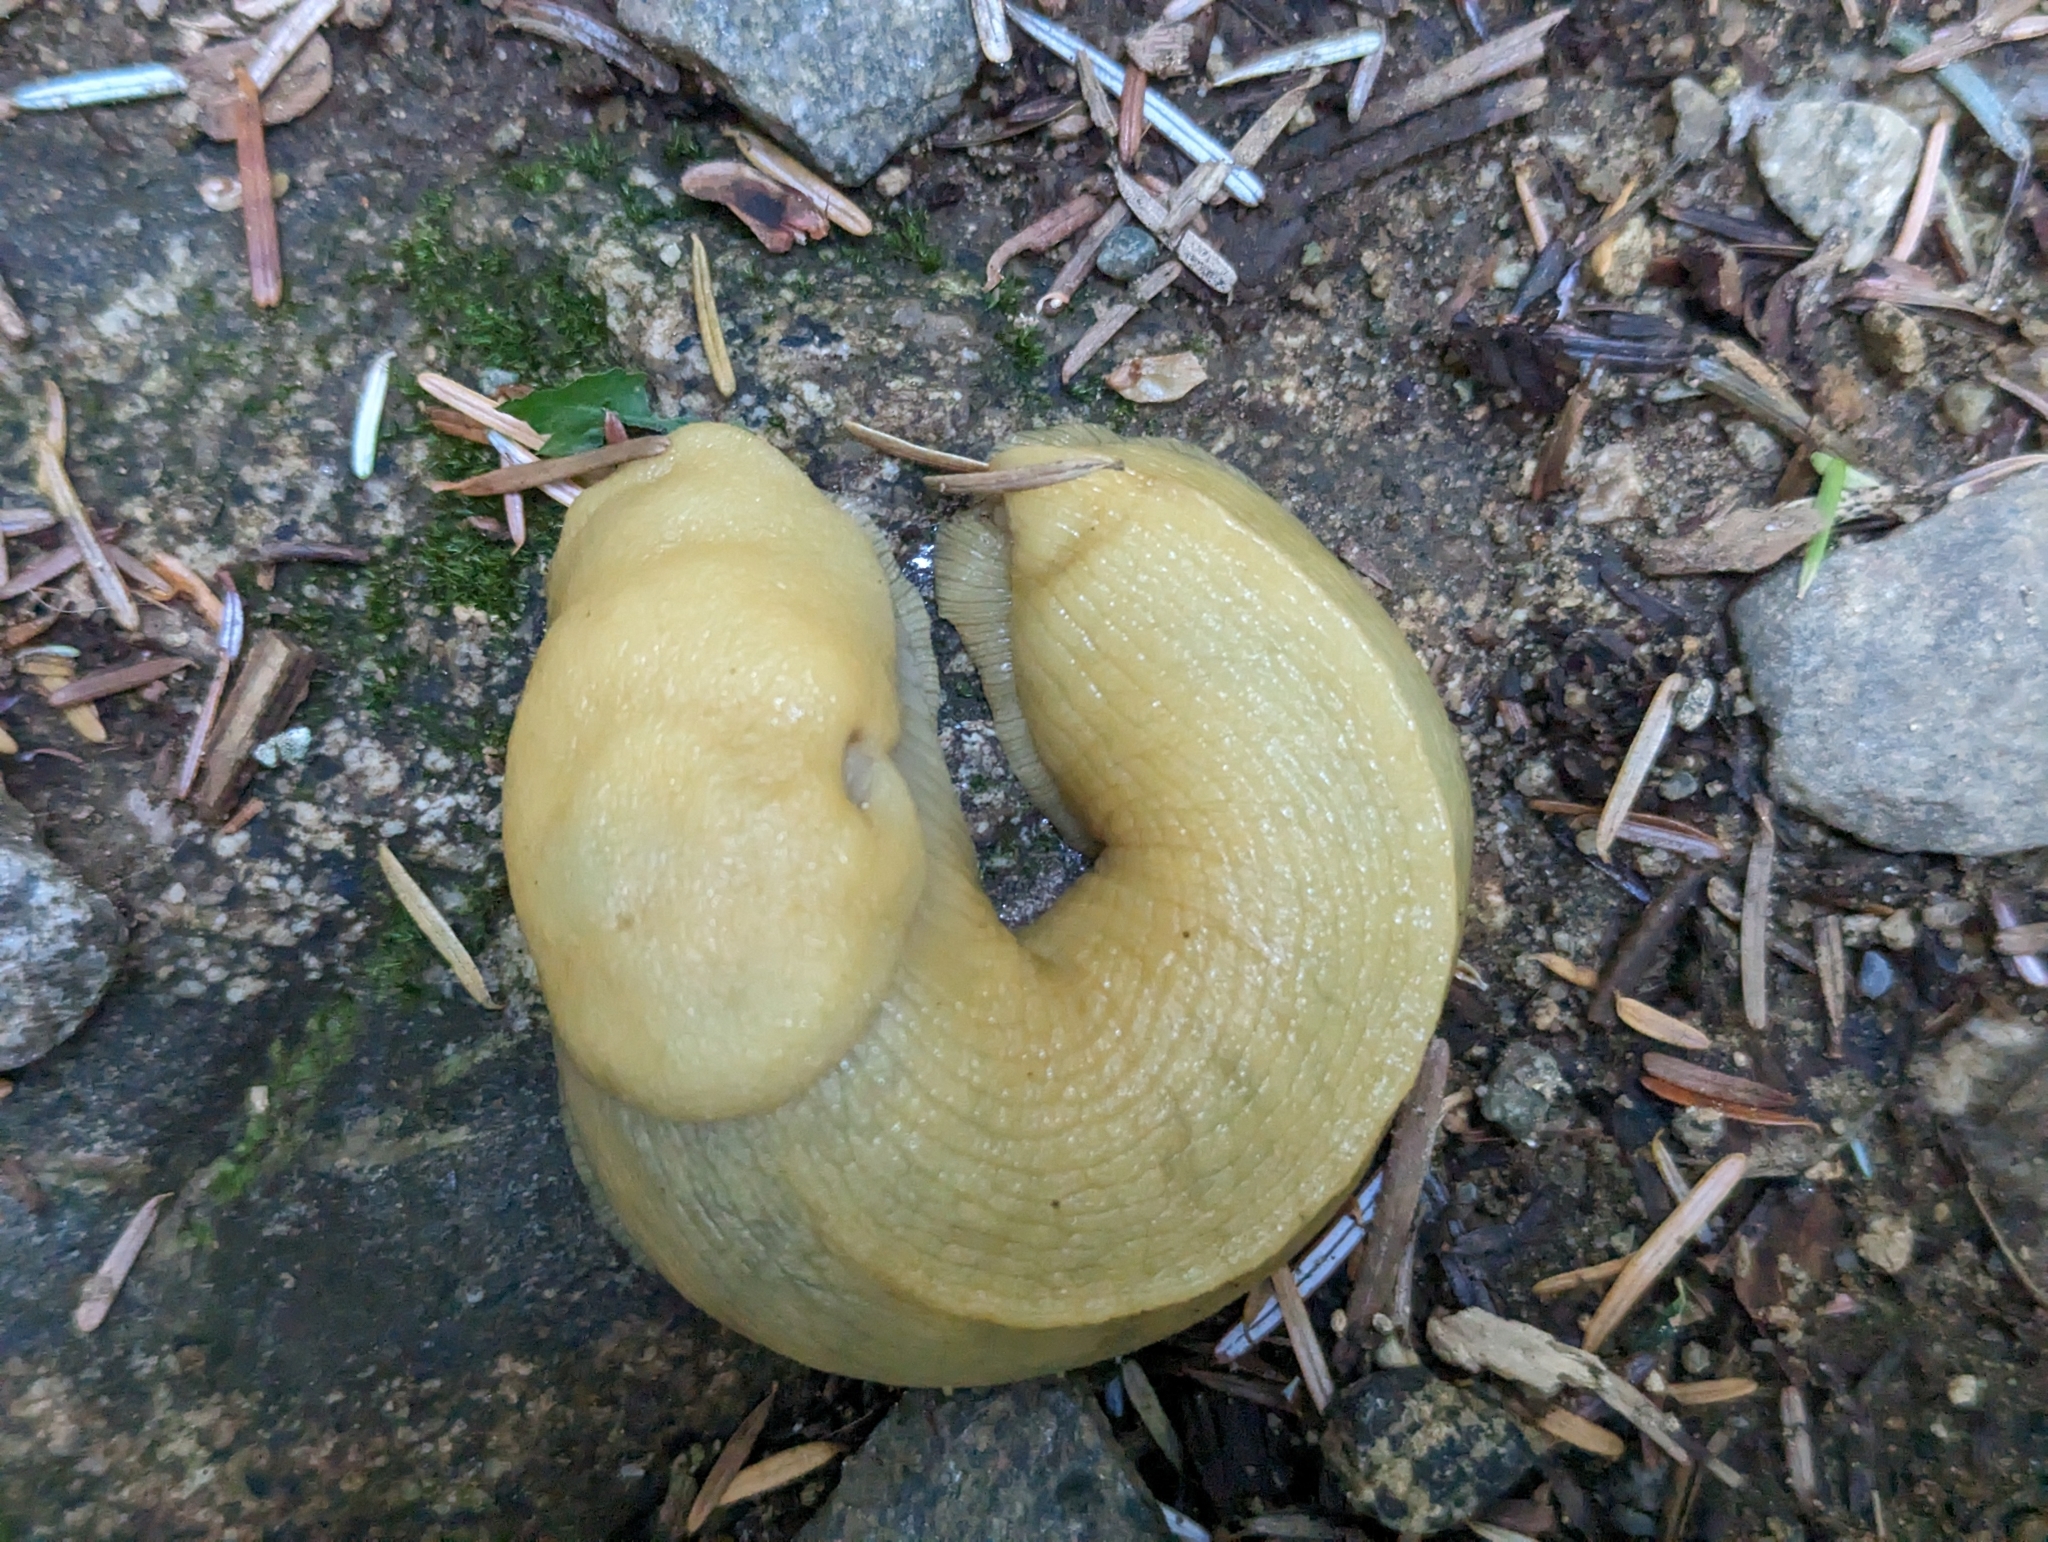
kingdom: Animalia
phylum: Mollusca
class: Gastropoda
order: Stylommatophora
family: Ariolimacidae
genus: Ariolimax
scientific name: Ariolimax columbianus
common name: Pacific banana slug
